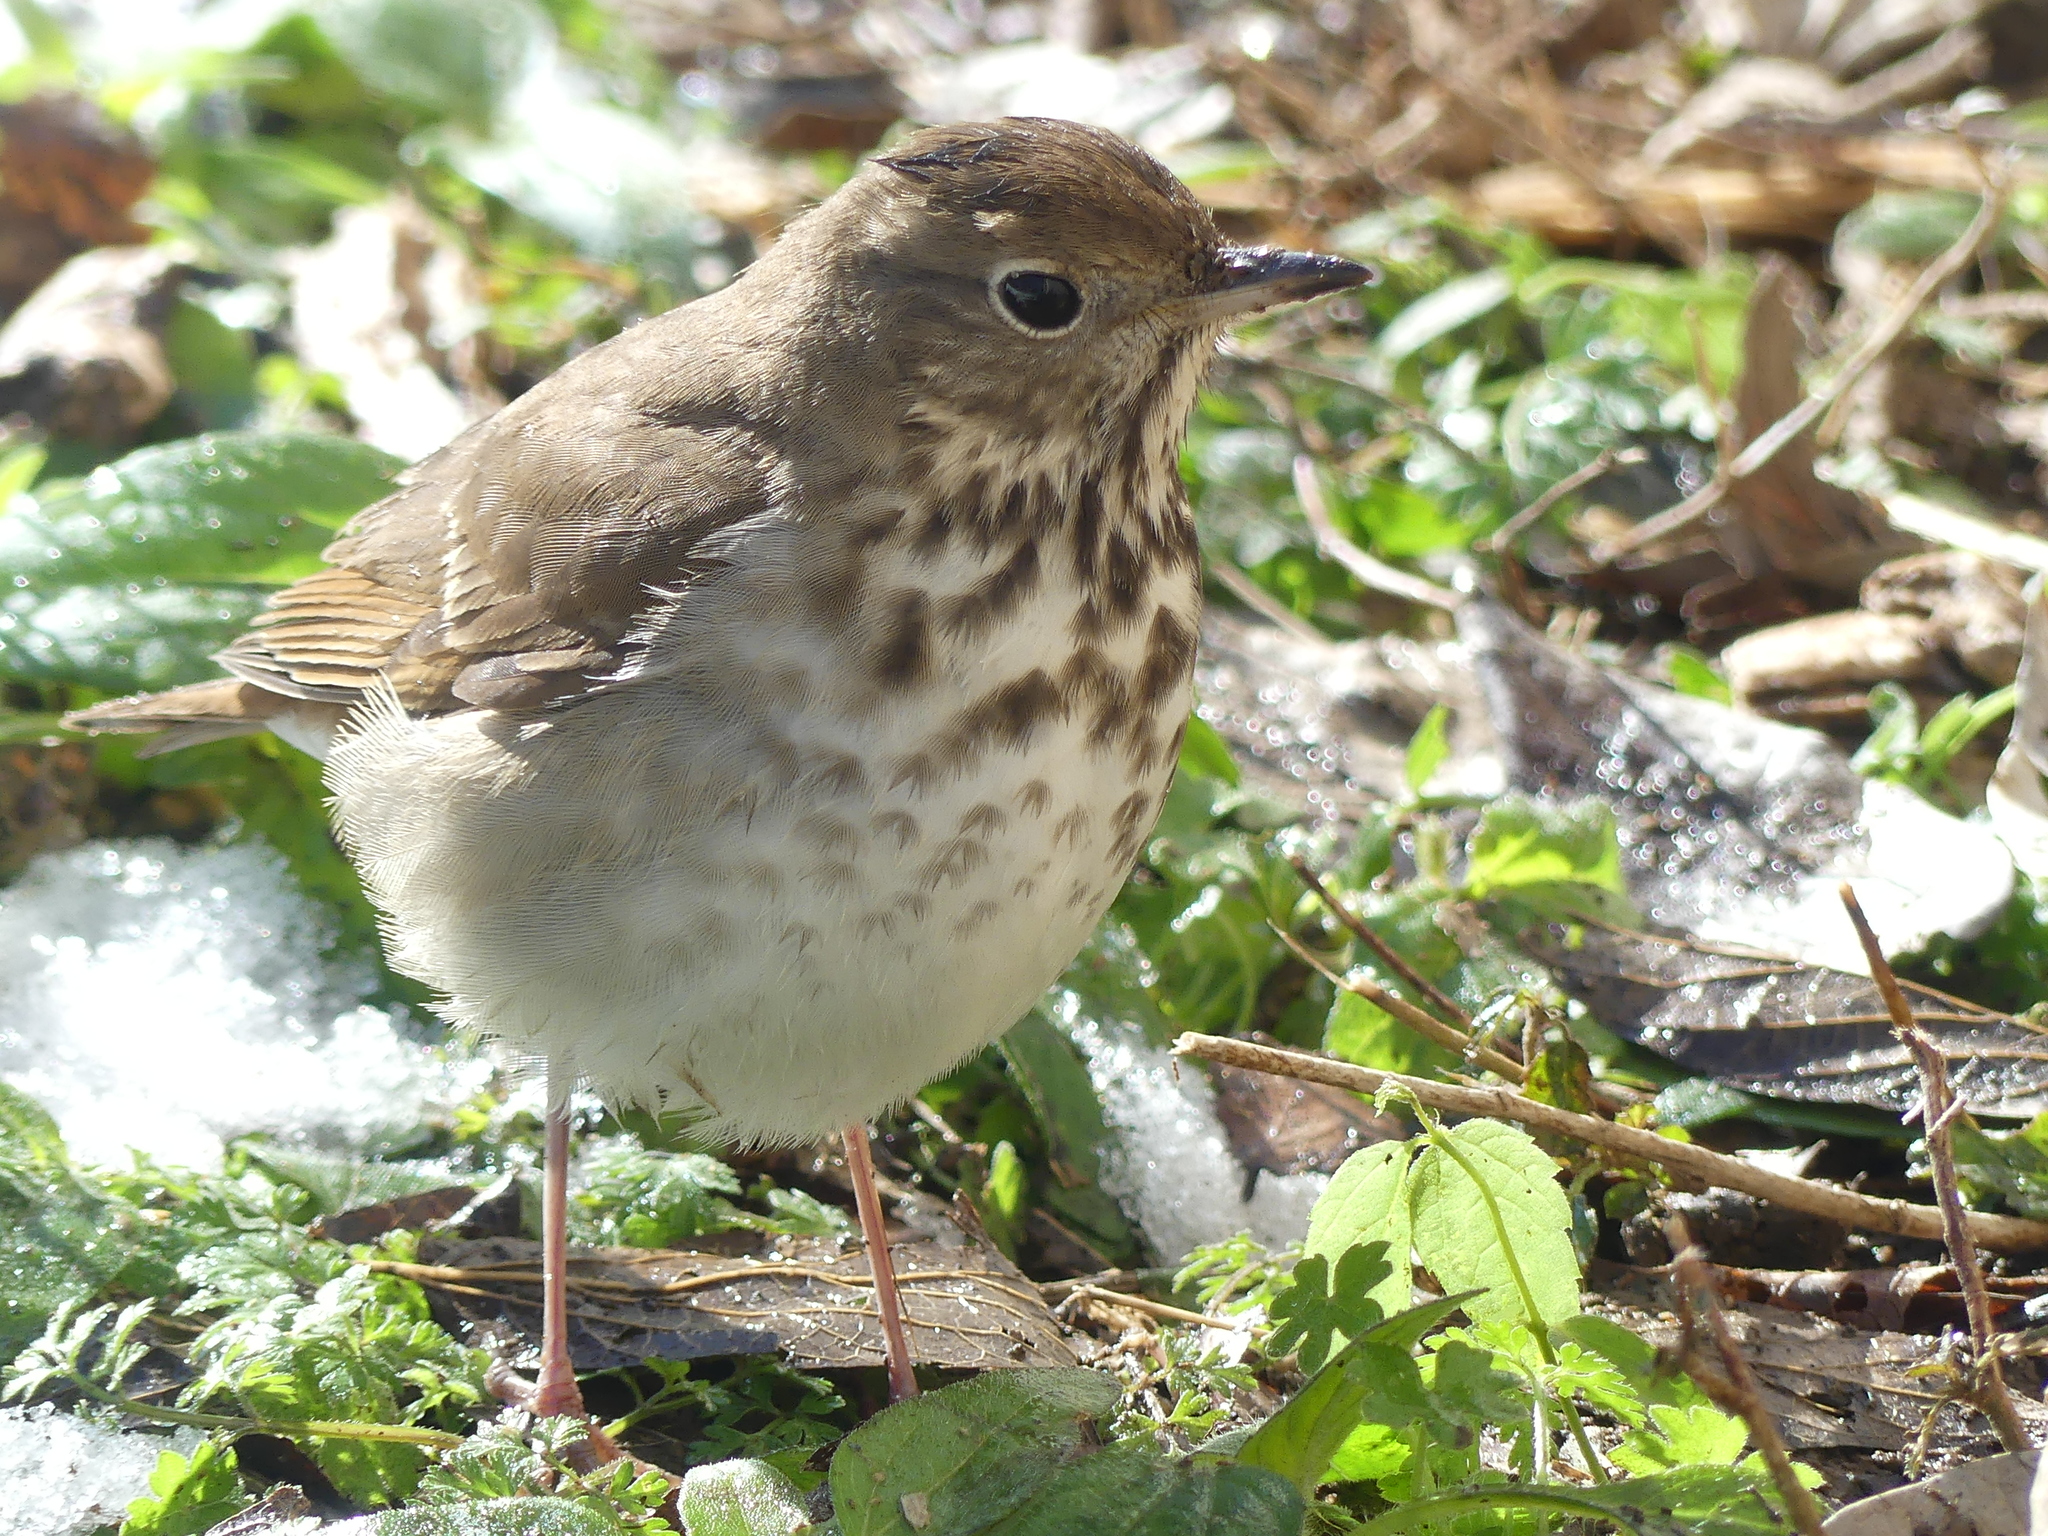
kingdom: Animalia
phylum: Chordata
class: Aves
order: Passeriformes
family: Turdidae
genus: Catharus
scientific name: Catharus guttatus
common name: Hermit thrush
